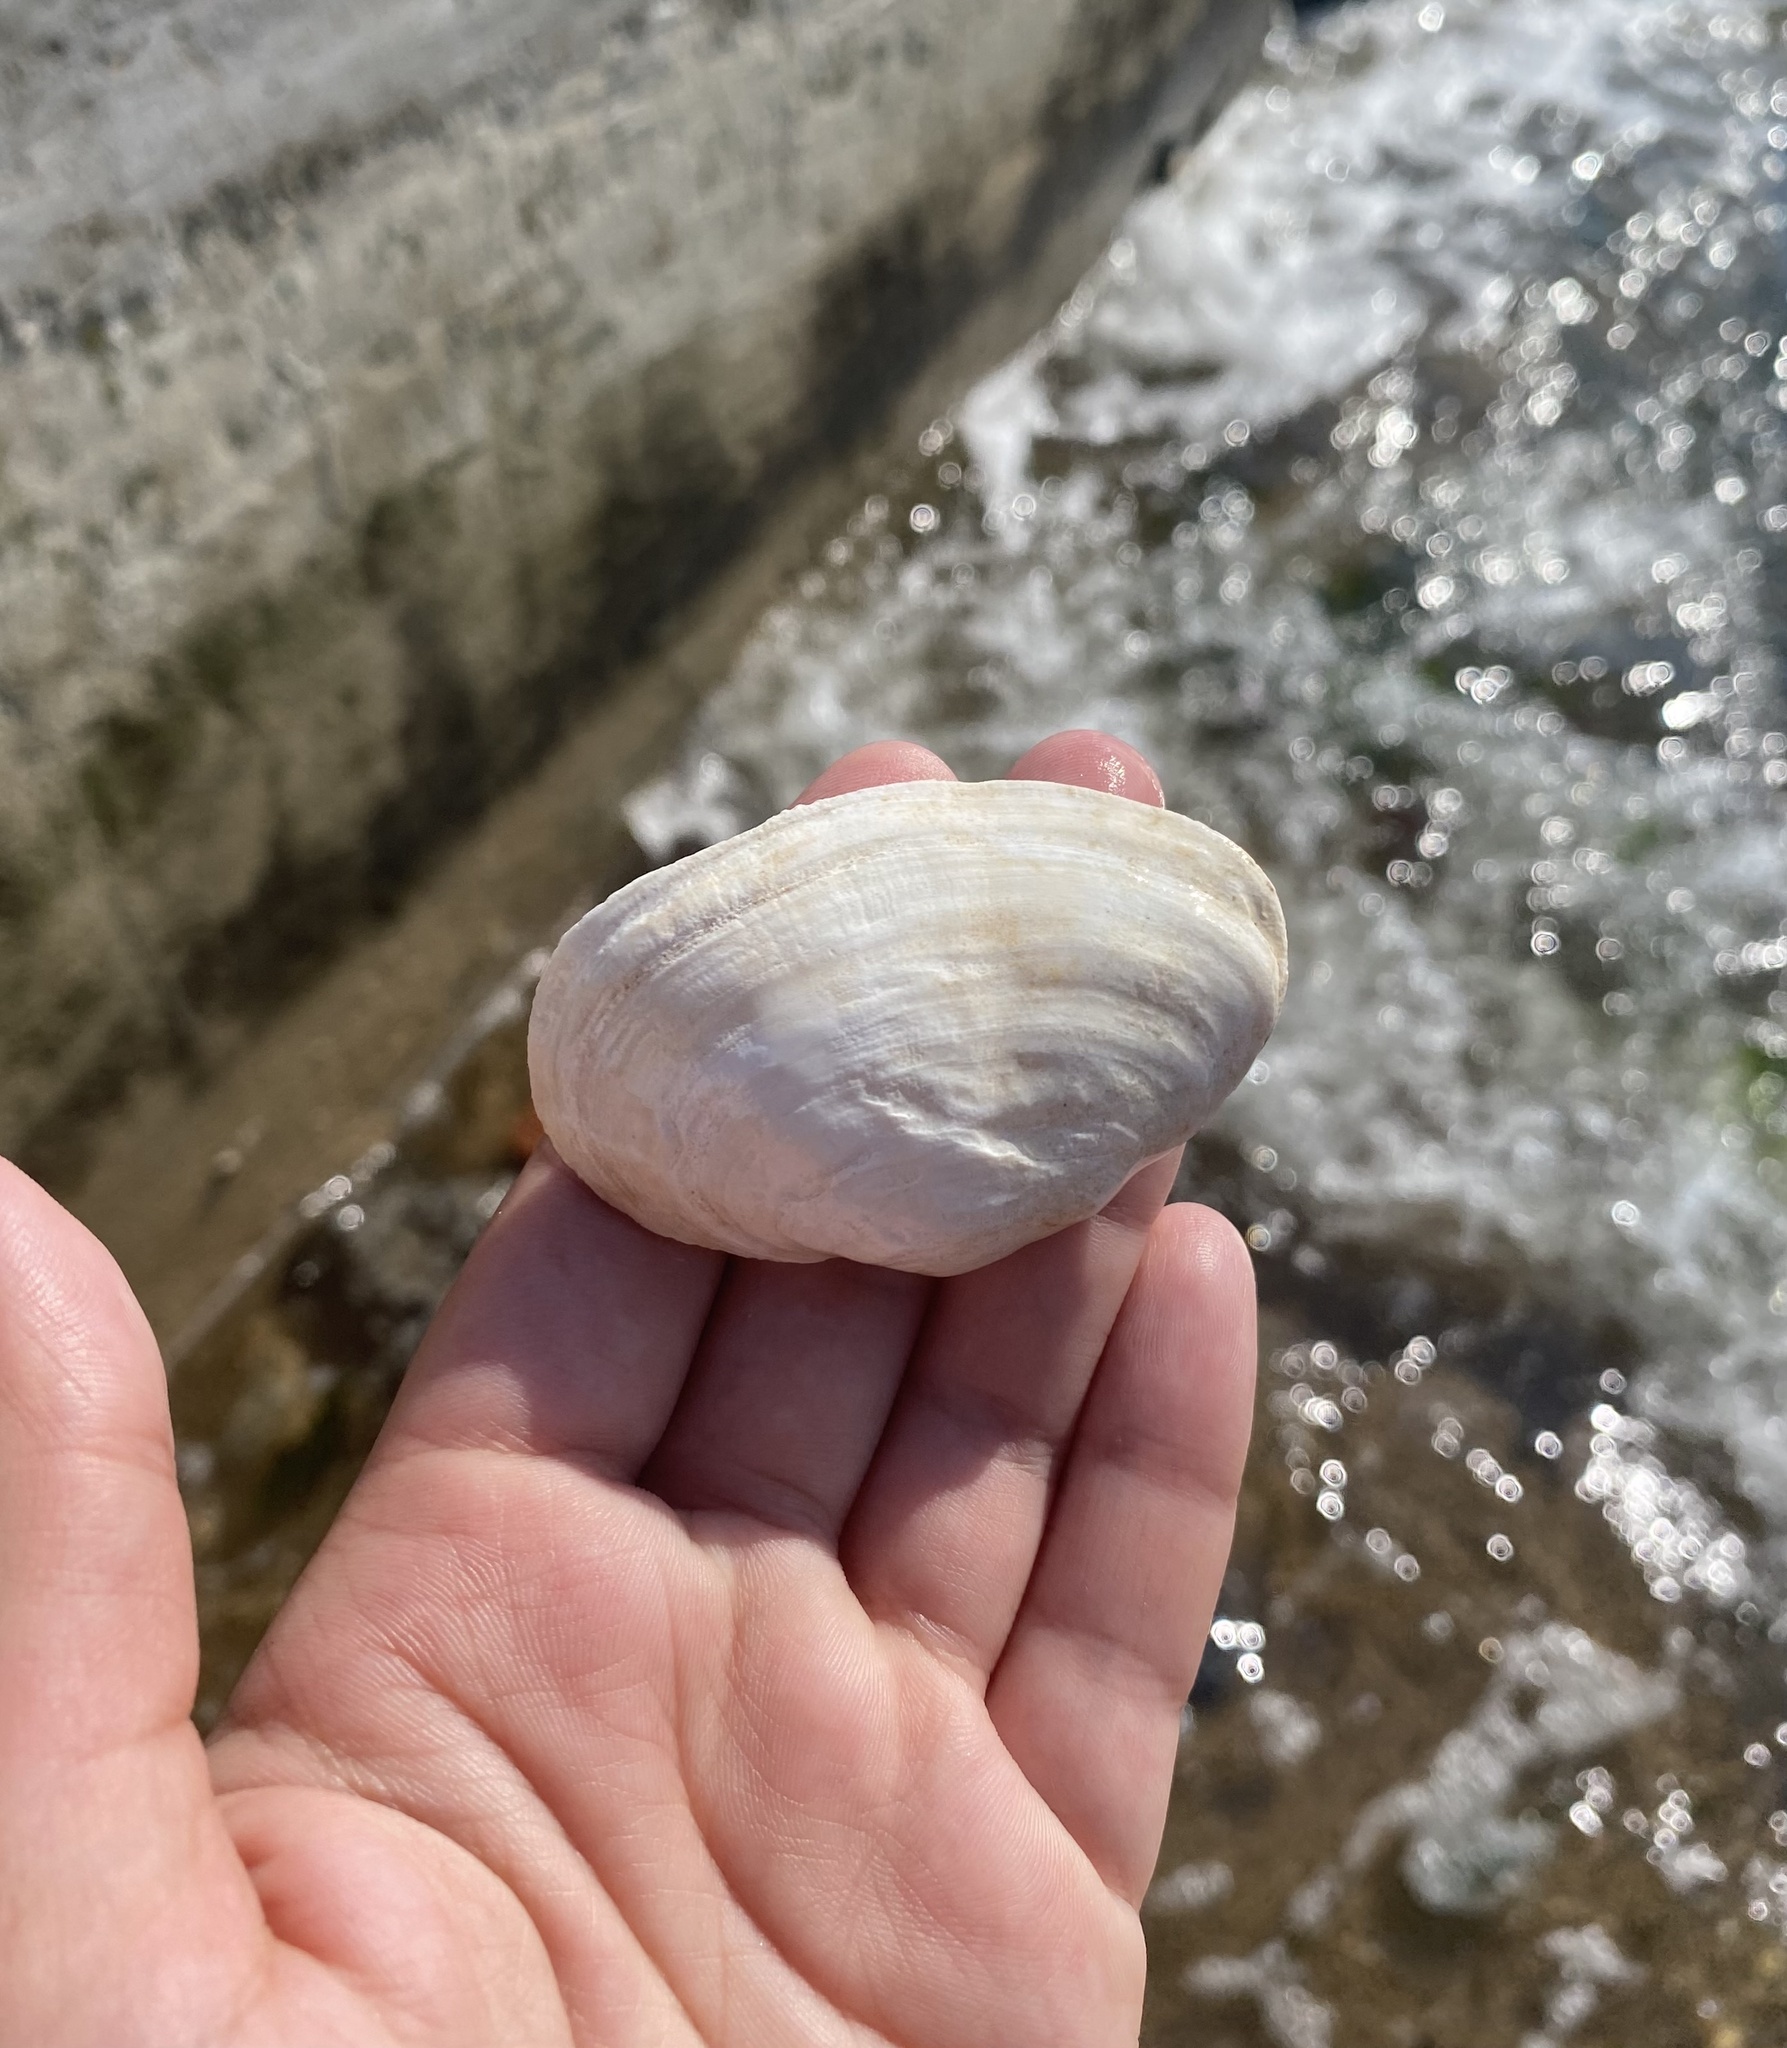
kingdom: Animalia
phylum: Mollusca
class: Bivalvia
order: Myida
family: Myidae
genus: Mya
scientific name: Mya arenaria
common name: Soft-shelled clam
